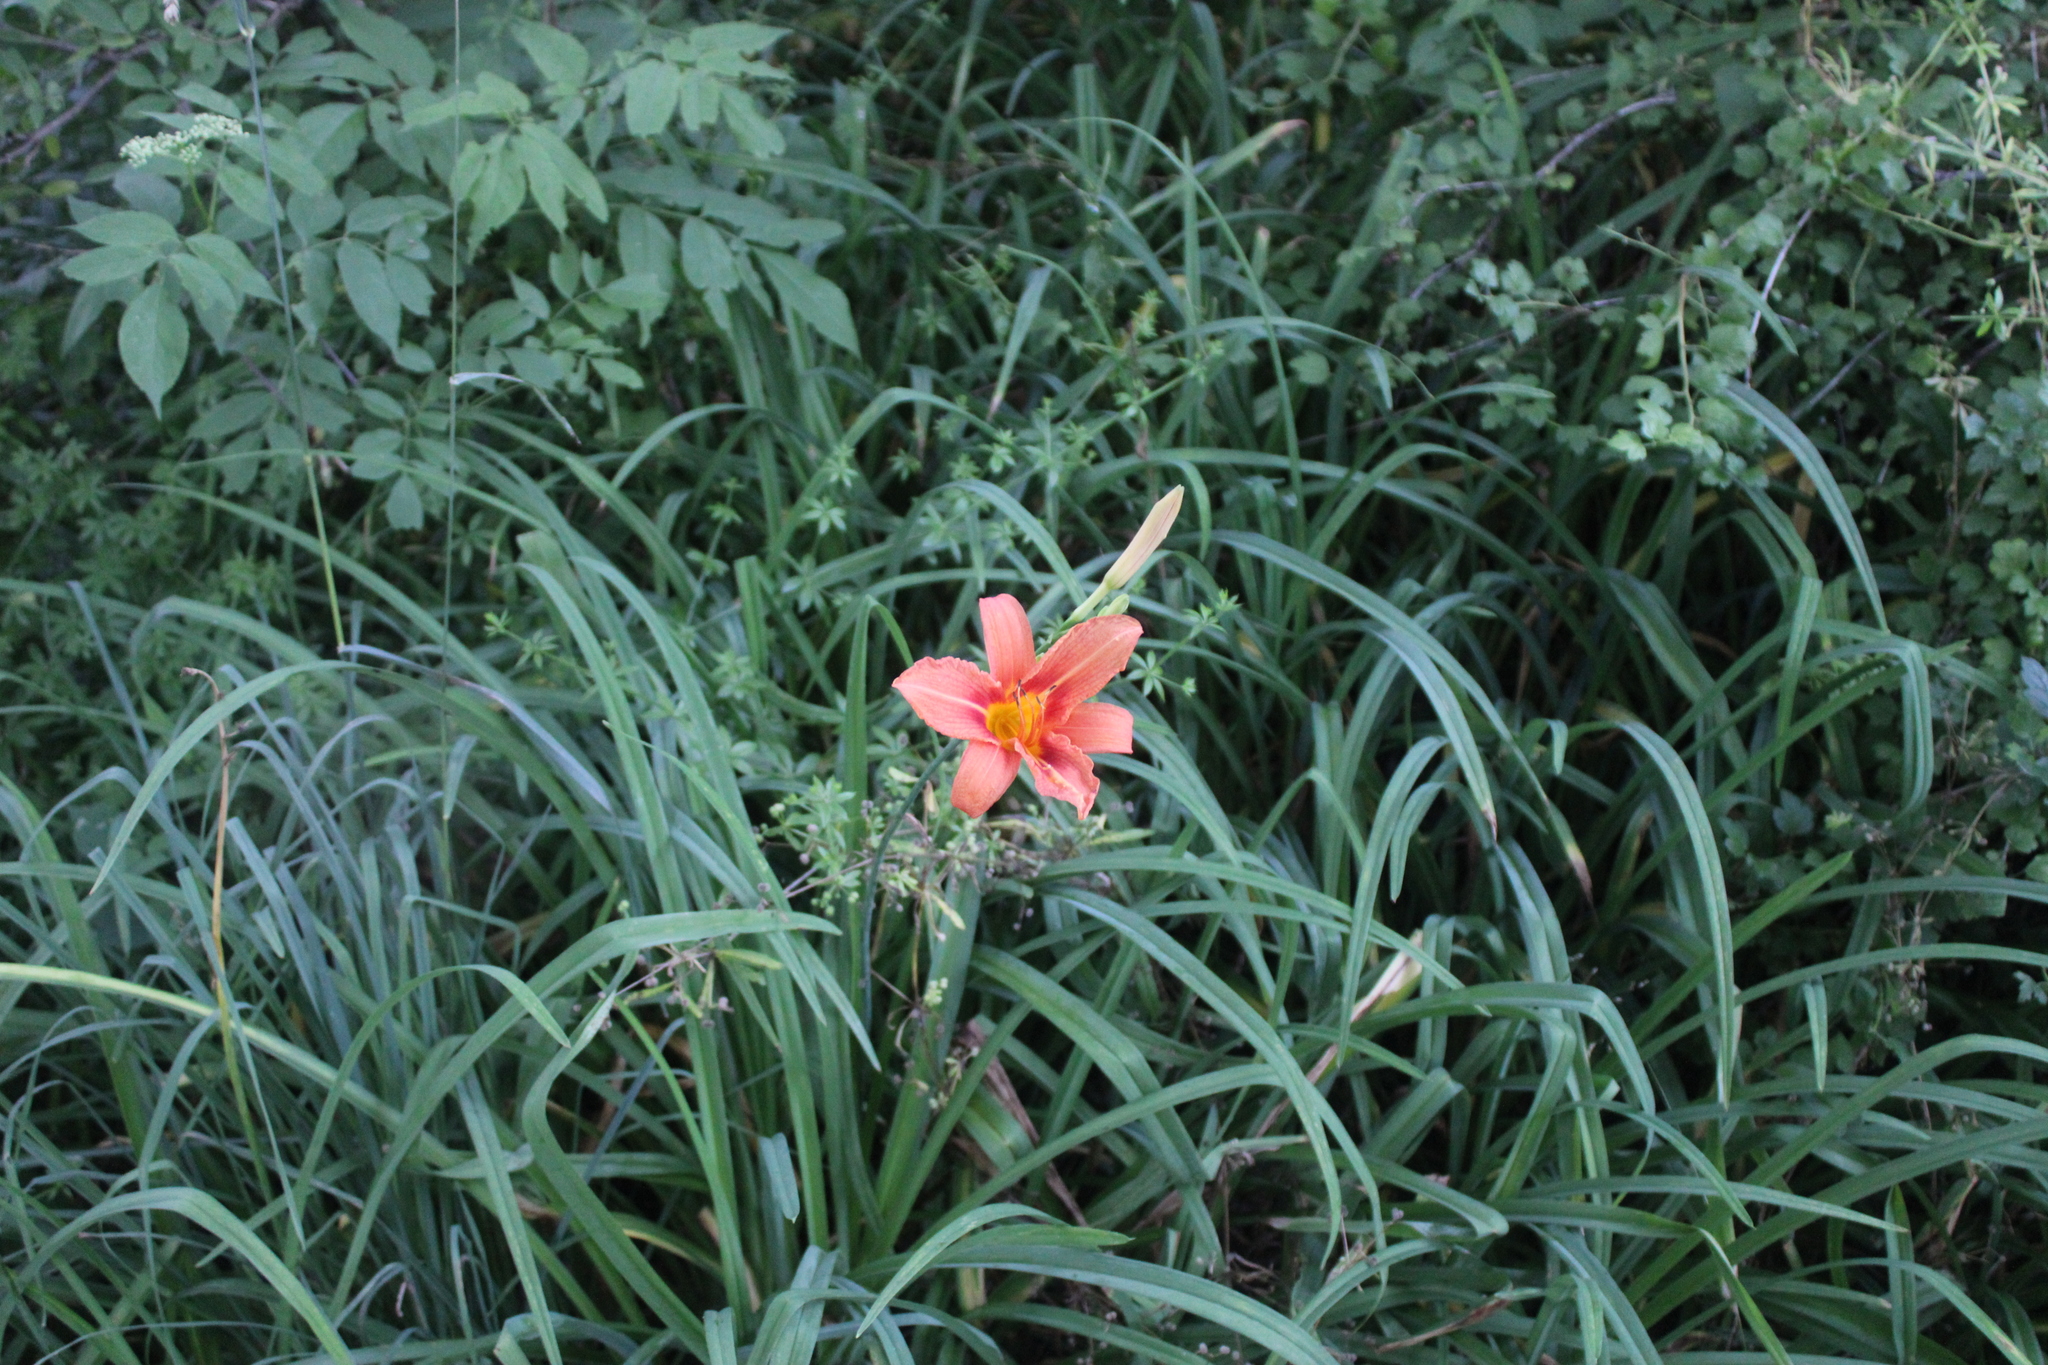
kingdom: Plantae
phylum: Tracheophyta
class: Liliopsida
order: Asparagales
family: Asphodelaceae
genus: Hemerocallis
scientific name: Hemerocallis fulva
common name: Orange day-lily
